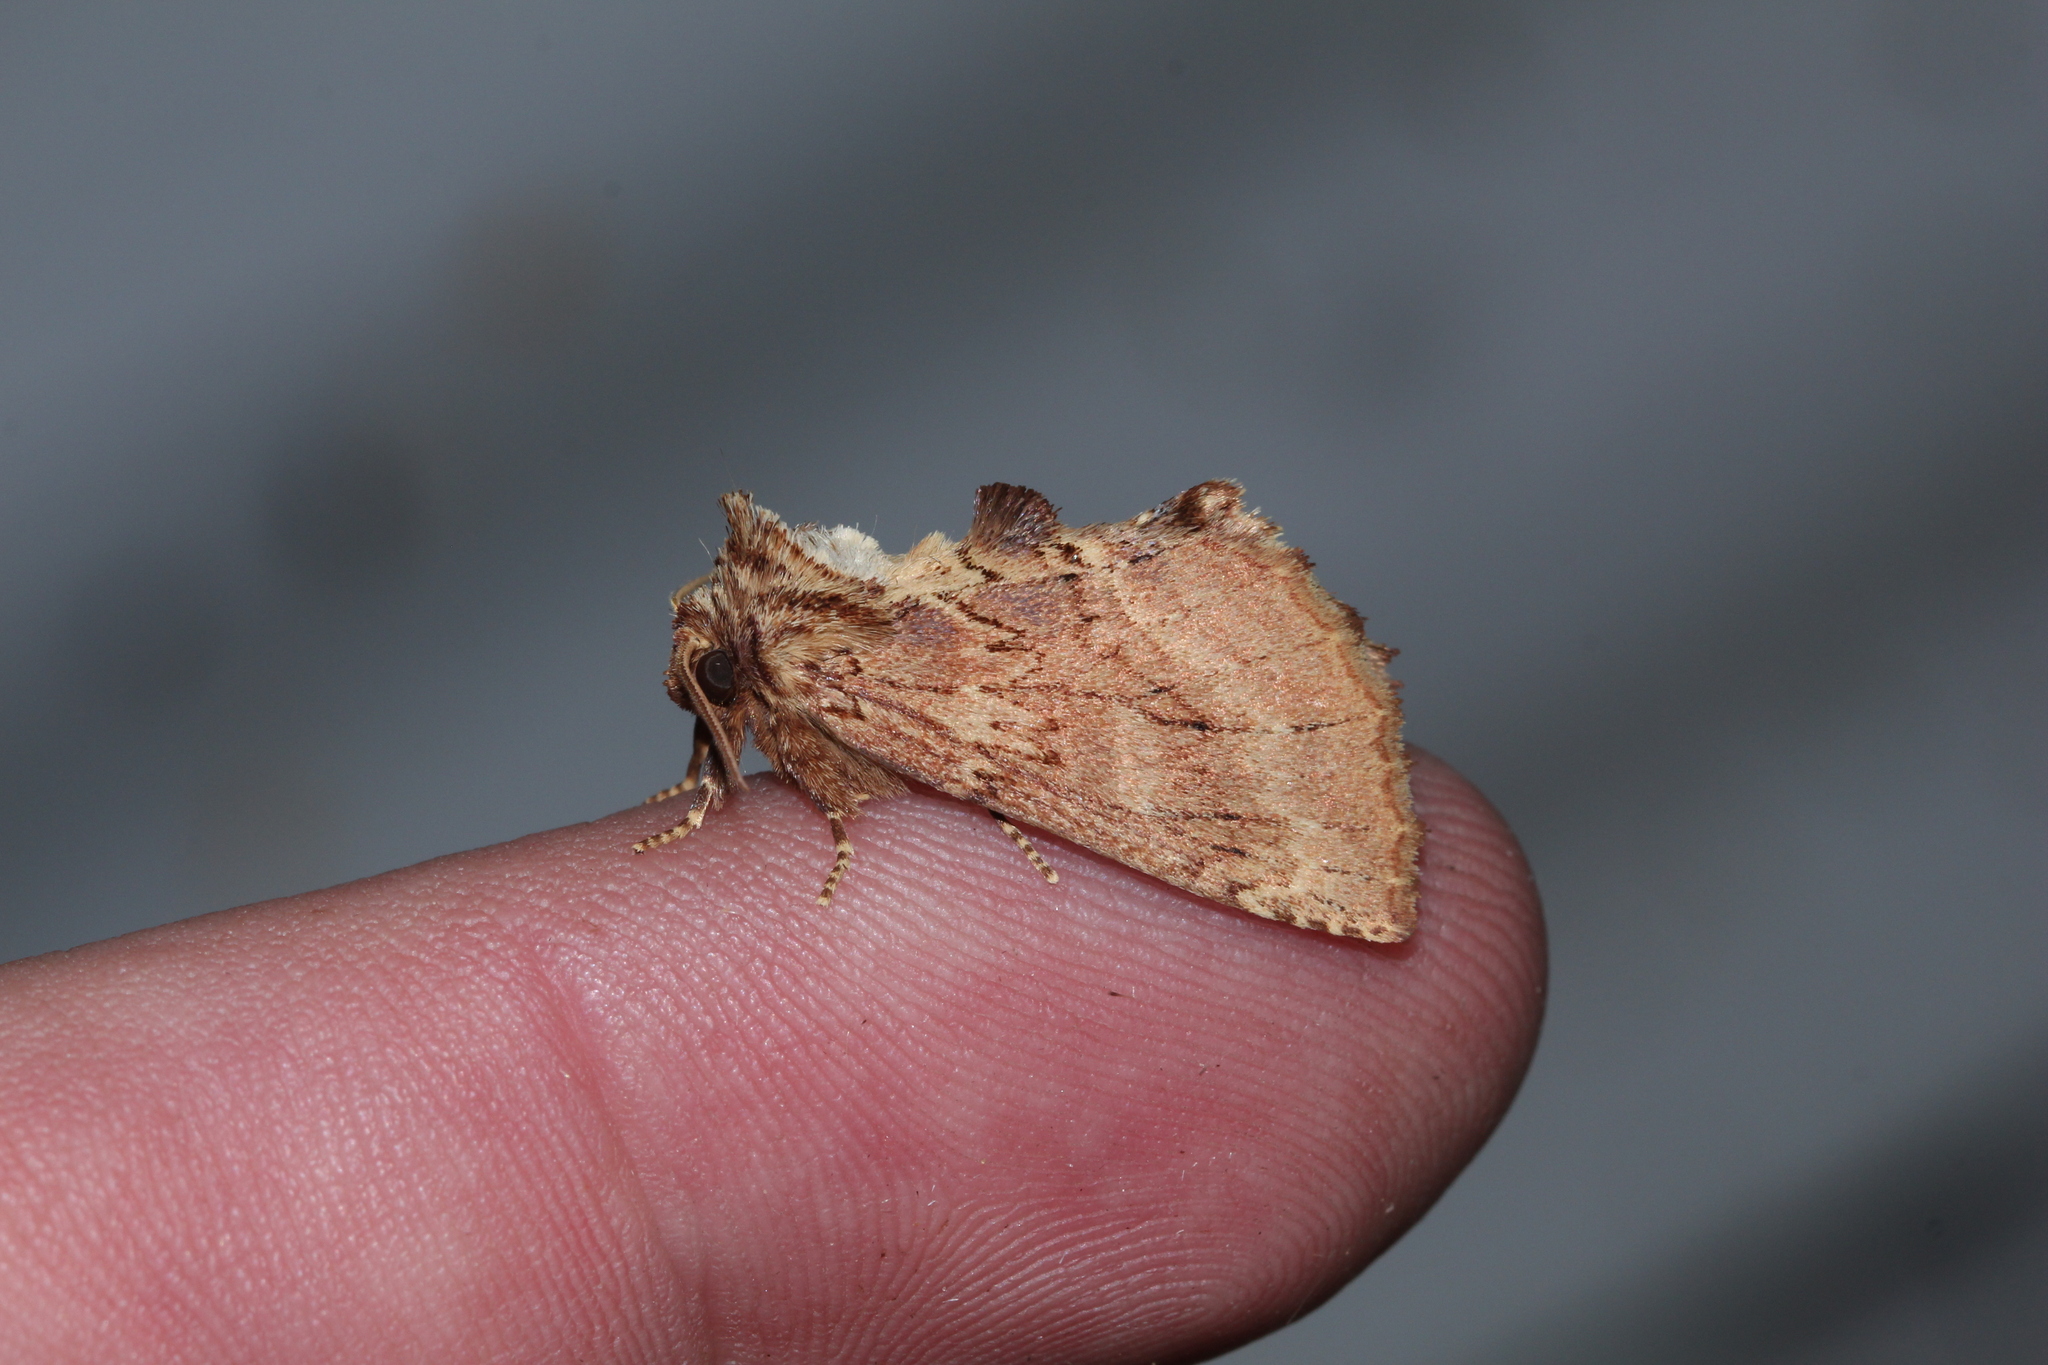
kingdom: Animalia
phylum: Arthropoda
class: Insecta
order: Lepidoptera
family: Notodontidae
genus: Ptilodon
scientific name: Ptilodon capucina
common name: Coxcomb prominent
